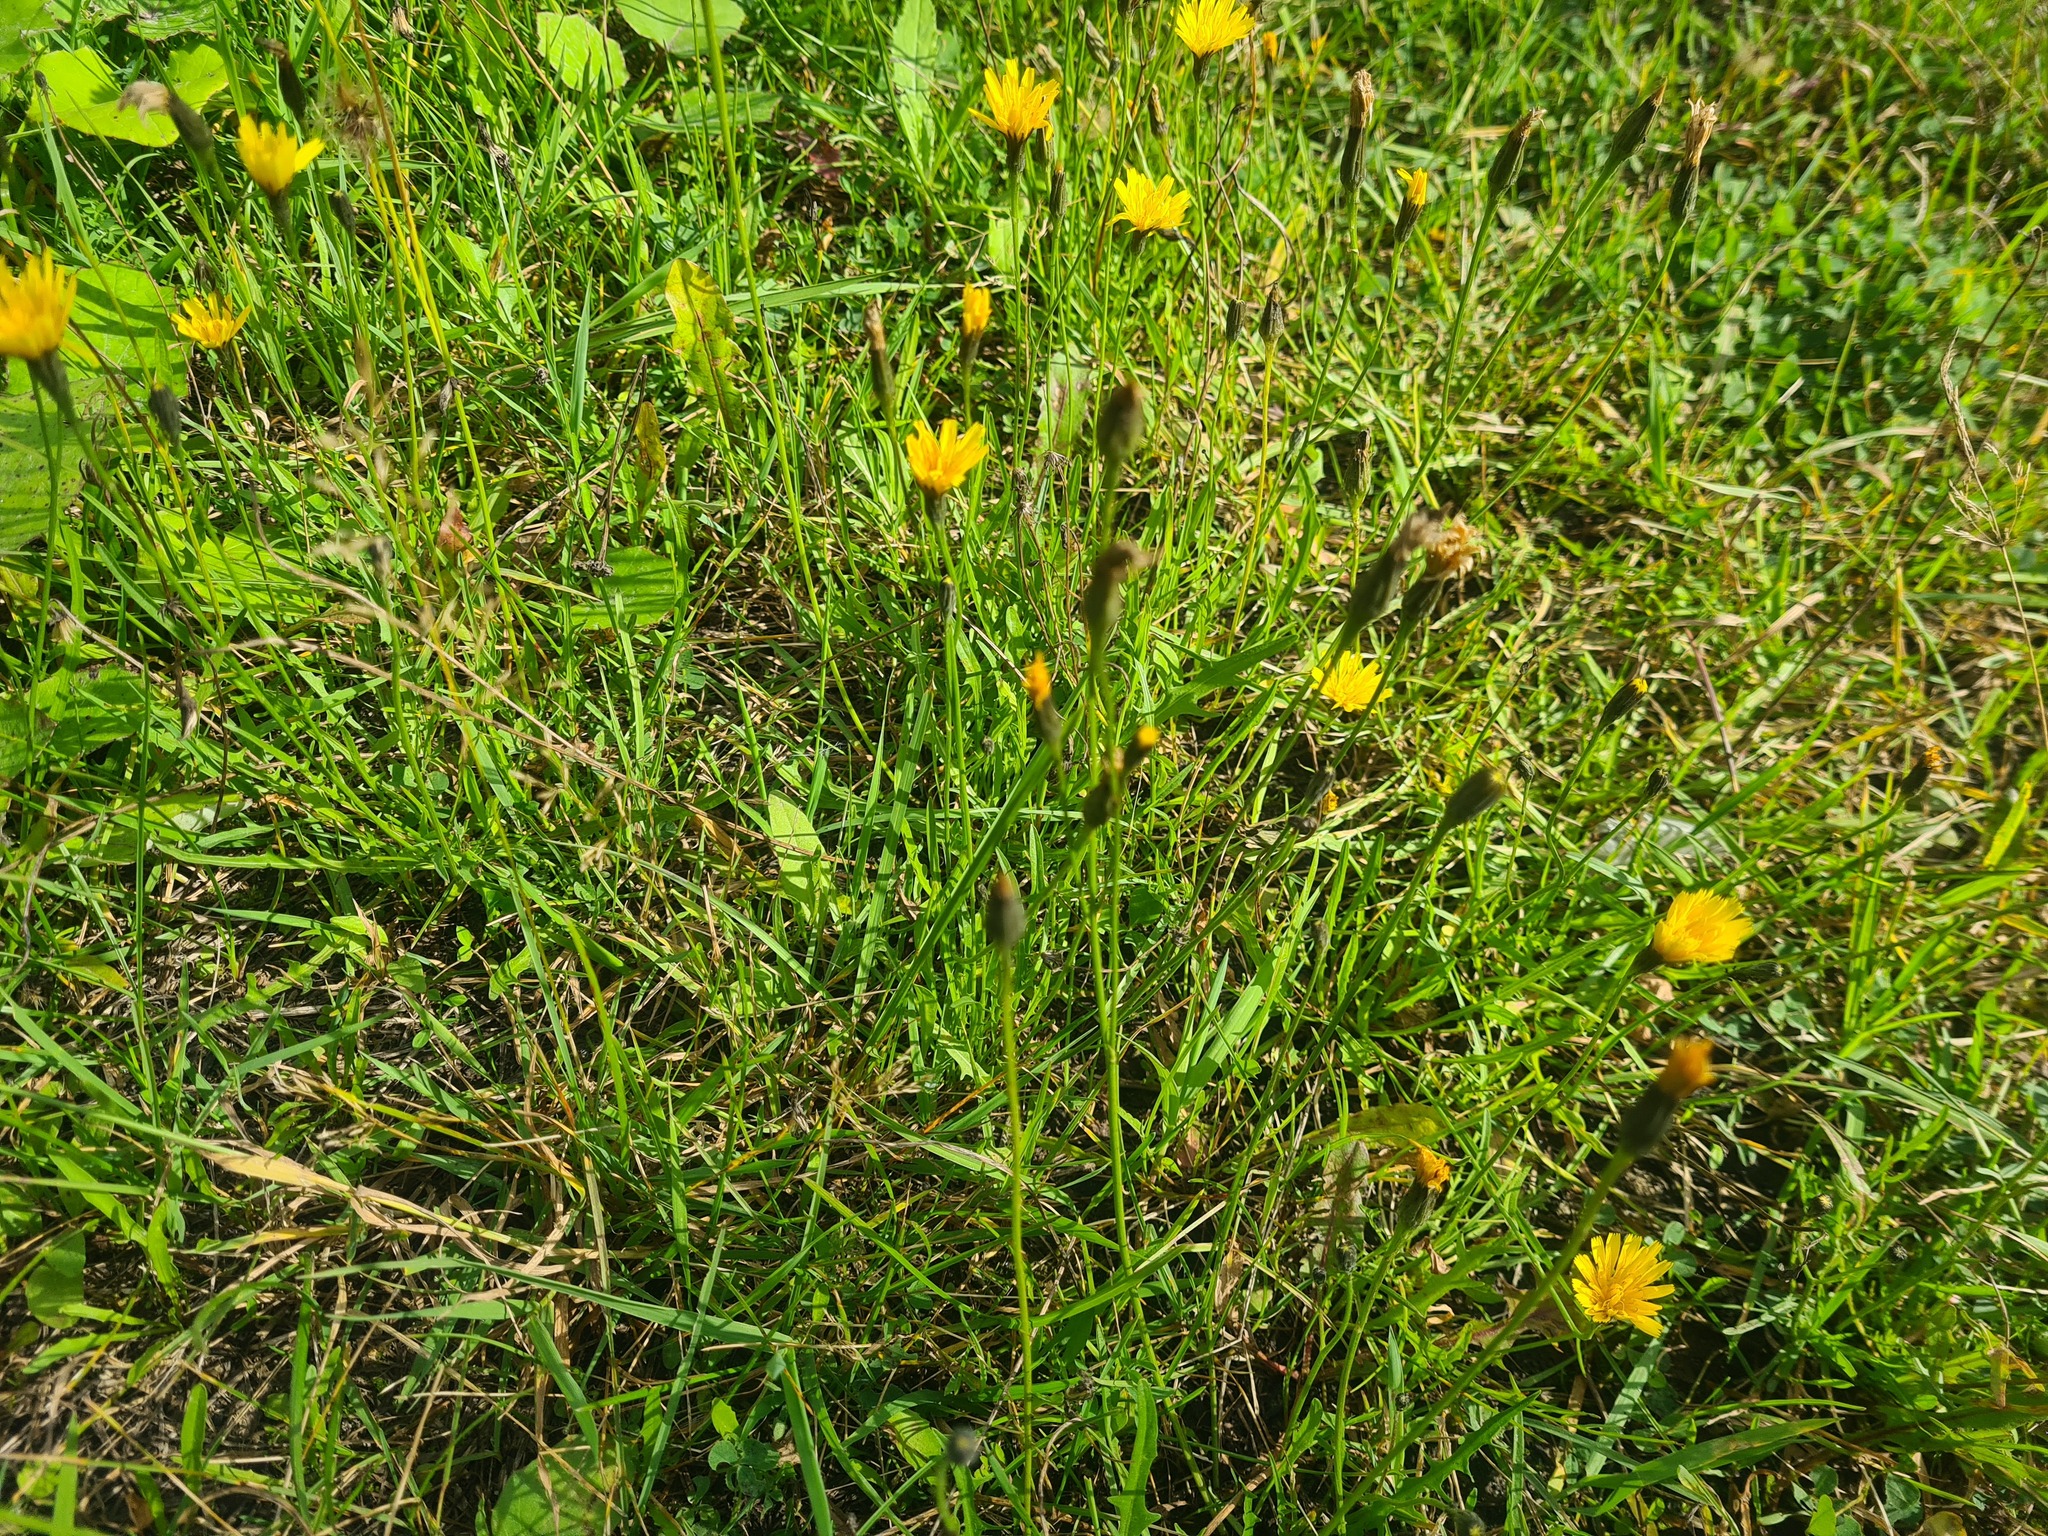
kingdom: Plantae
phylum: Tracheophyta
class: Magnoliopsida
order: Asterales
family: Asteraceae
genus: Scorzoneroides
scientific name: Scorzoneroides autumnalis
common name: Autumn hawkbit
